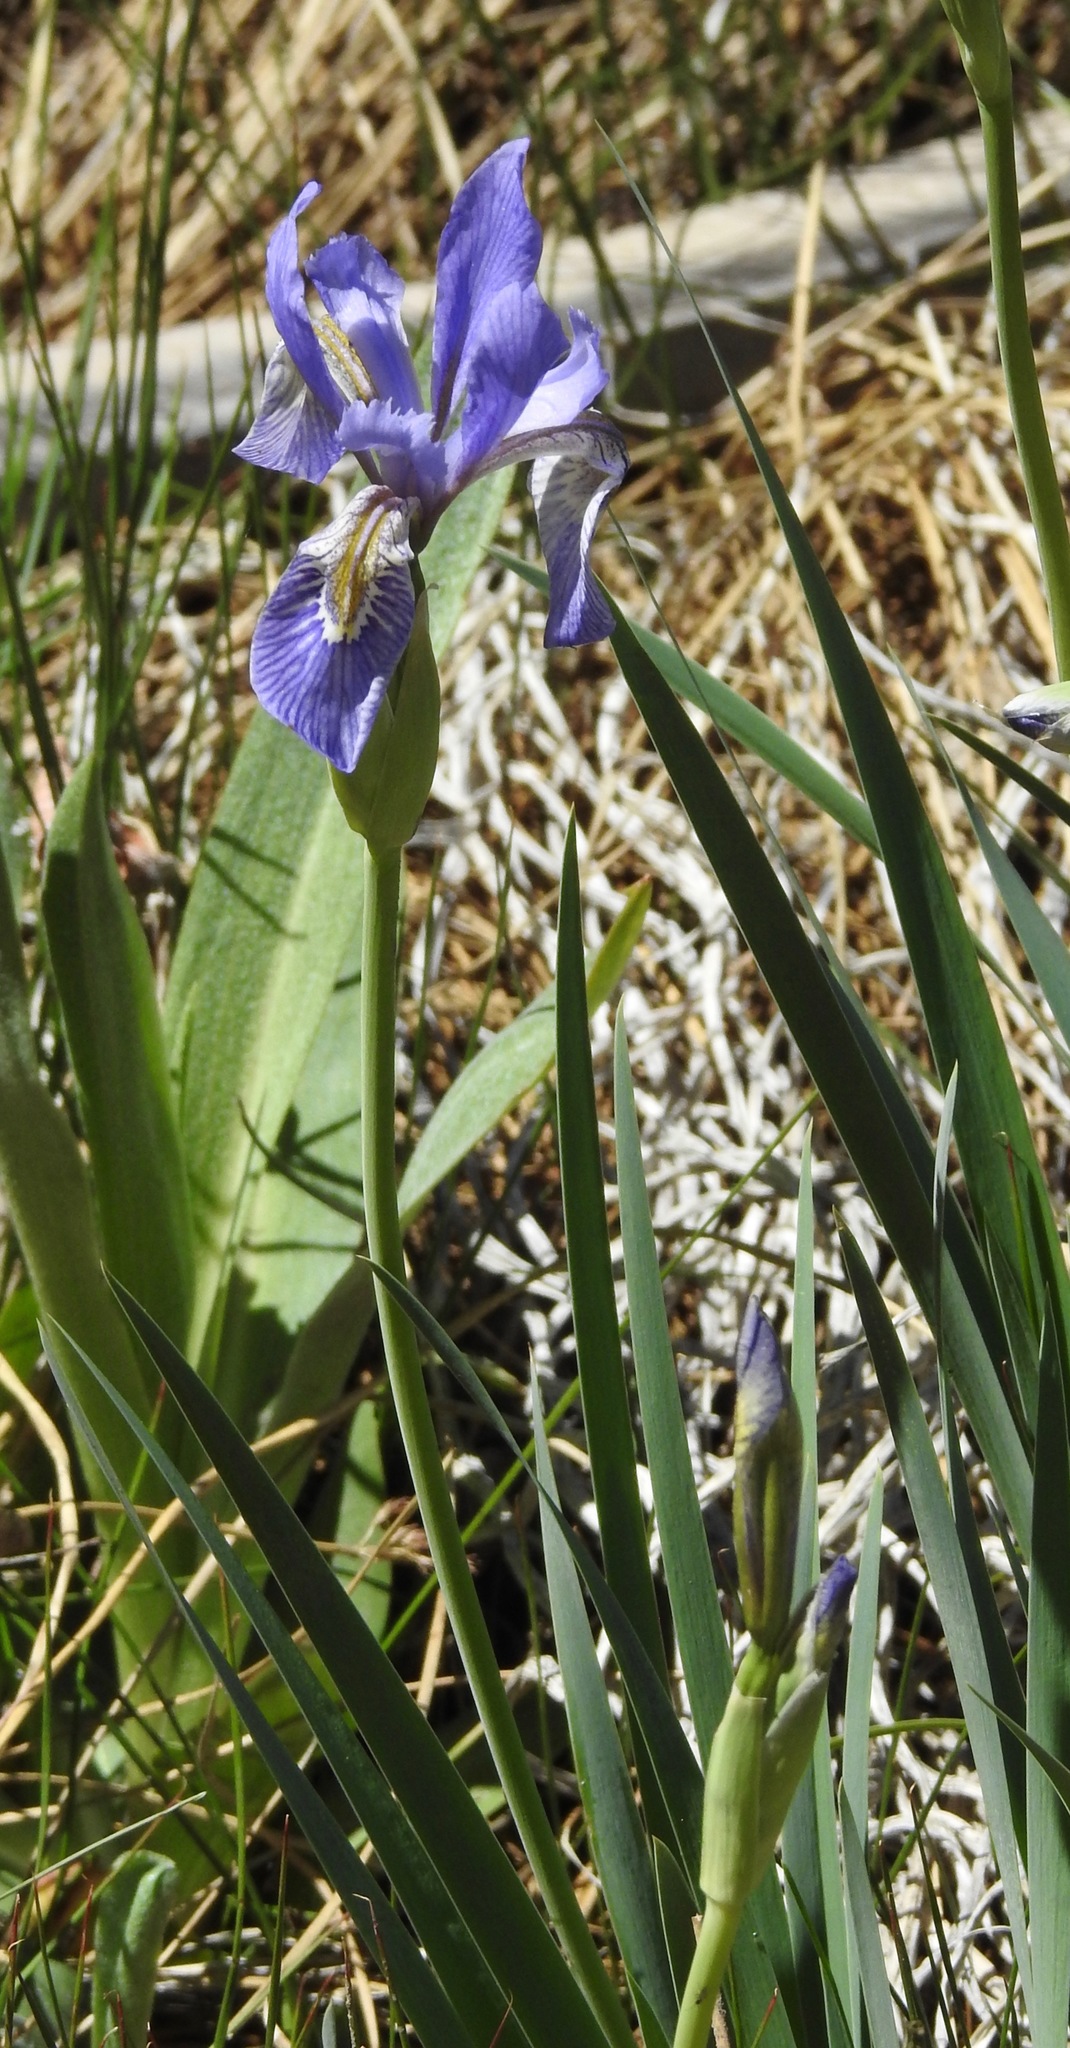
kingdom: Plantae
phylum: Tracheophyta
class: Liliopsida
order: Asparagales
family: Iridaceae
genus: Iris
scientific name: Iris missouriensis
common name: Rocky mountain iris
